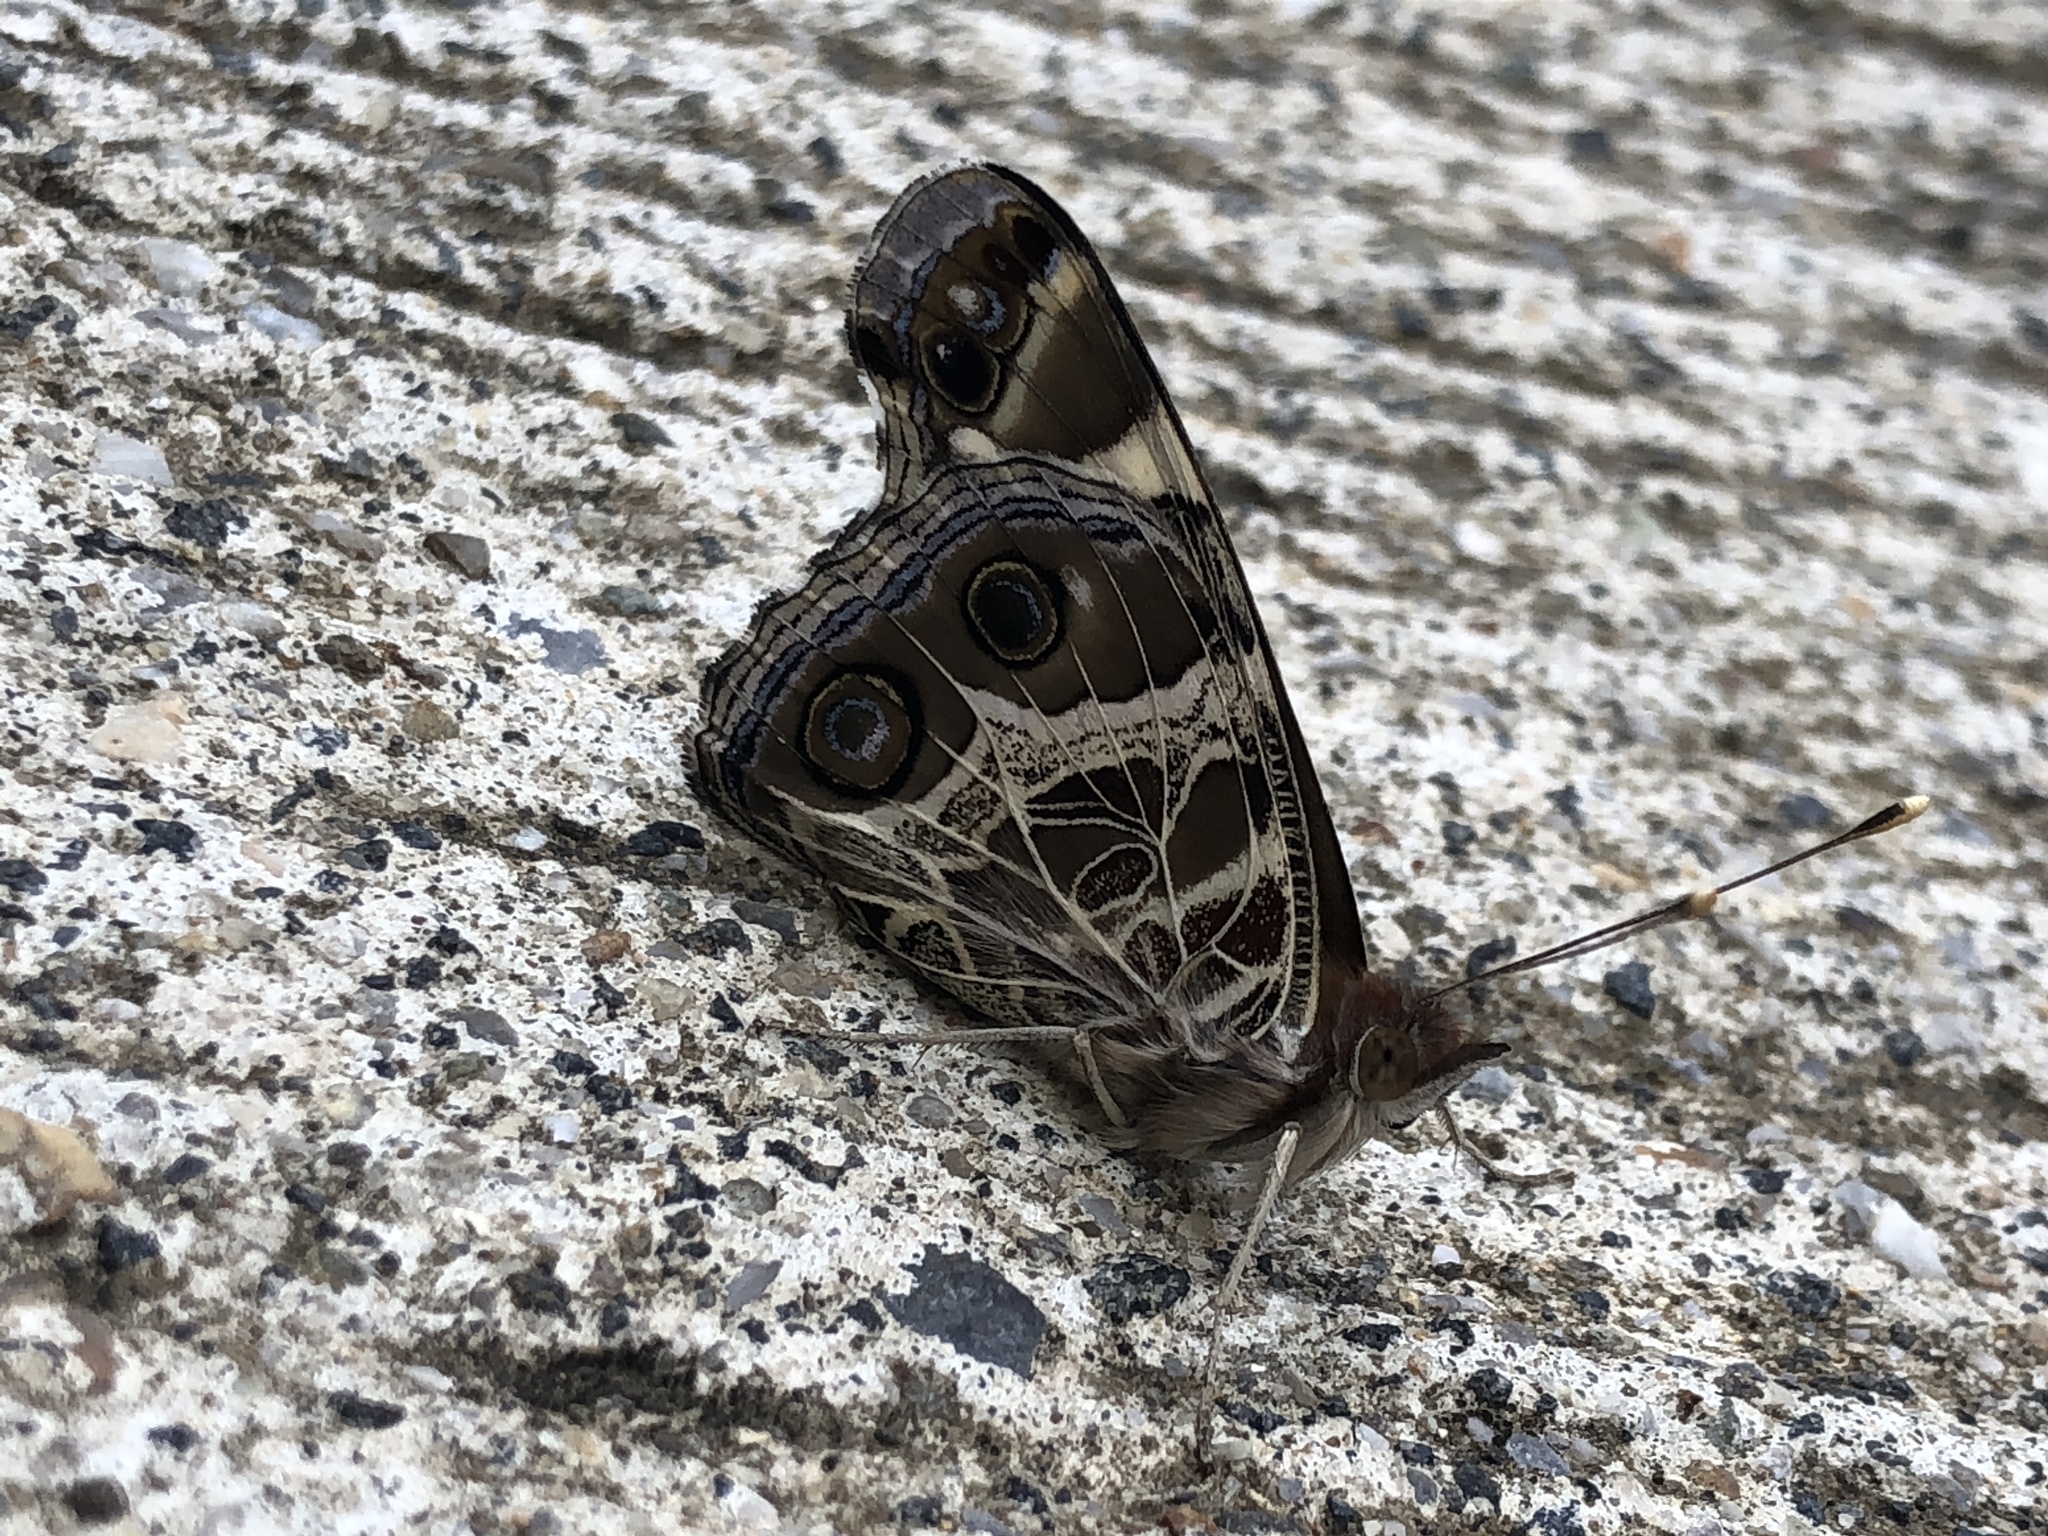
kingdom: Animalia
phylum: Arthropoda
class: Insecta
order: Lepidoptera
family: Nymphalidae
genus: Vanessa
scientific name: Vanessa virginiensis
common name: American lady
